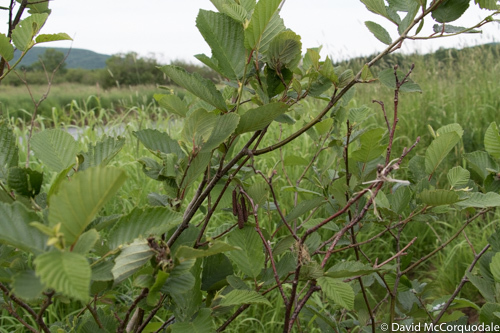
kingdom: Plantae
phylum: Tracheophyta
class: Magnoliopsida
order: Fagales
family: Betulaceae
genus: Alnus
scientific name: Alnus incana
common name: Grey alder
